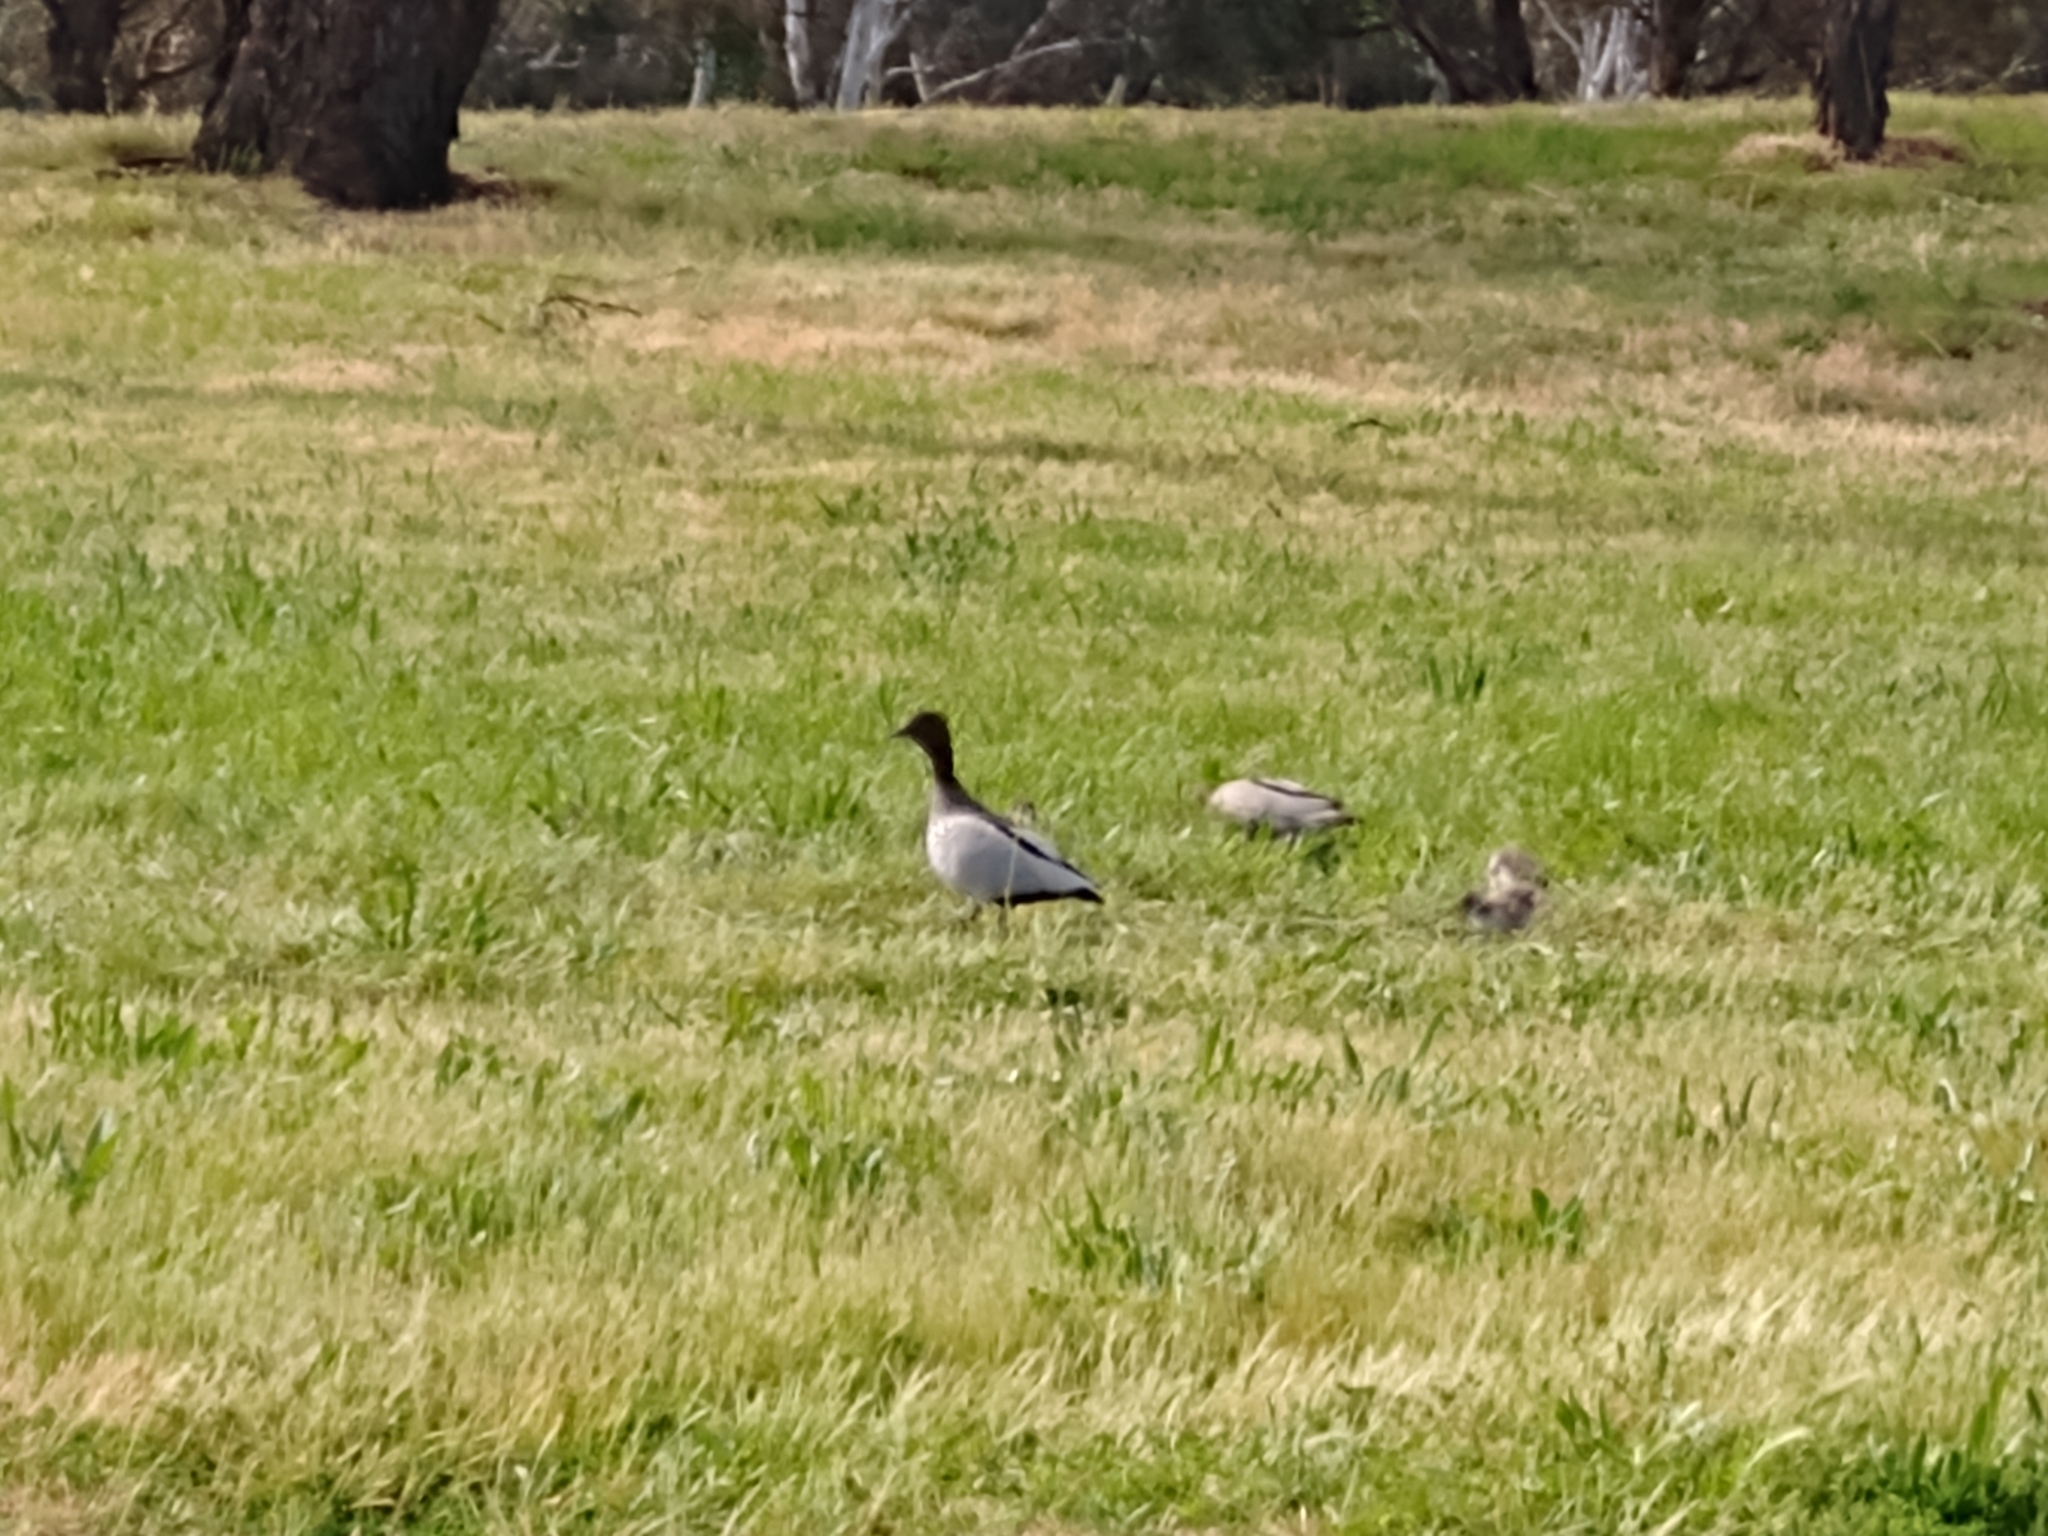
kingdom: Animalia
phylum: Chordata
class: Aves
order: Anseriformes
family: Anatidae
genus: Chenonetta
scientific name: Chenonetta jubata
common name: Maned duck
